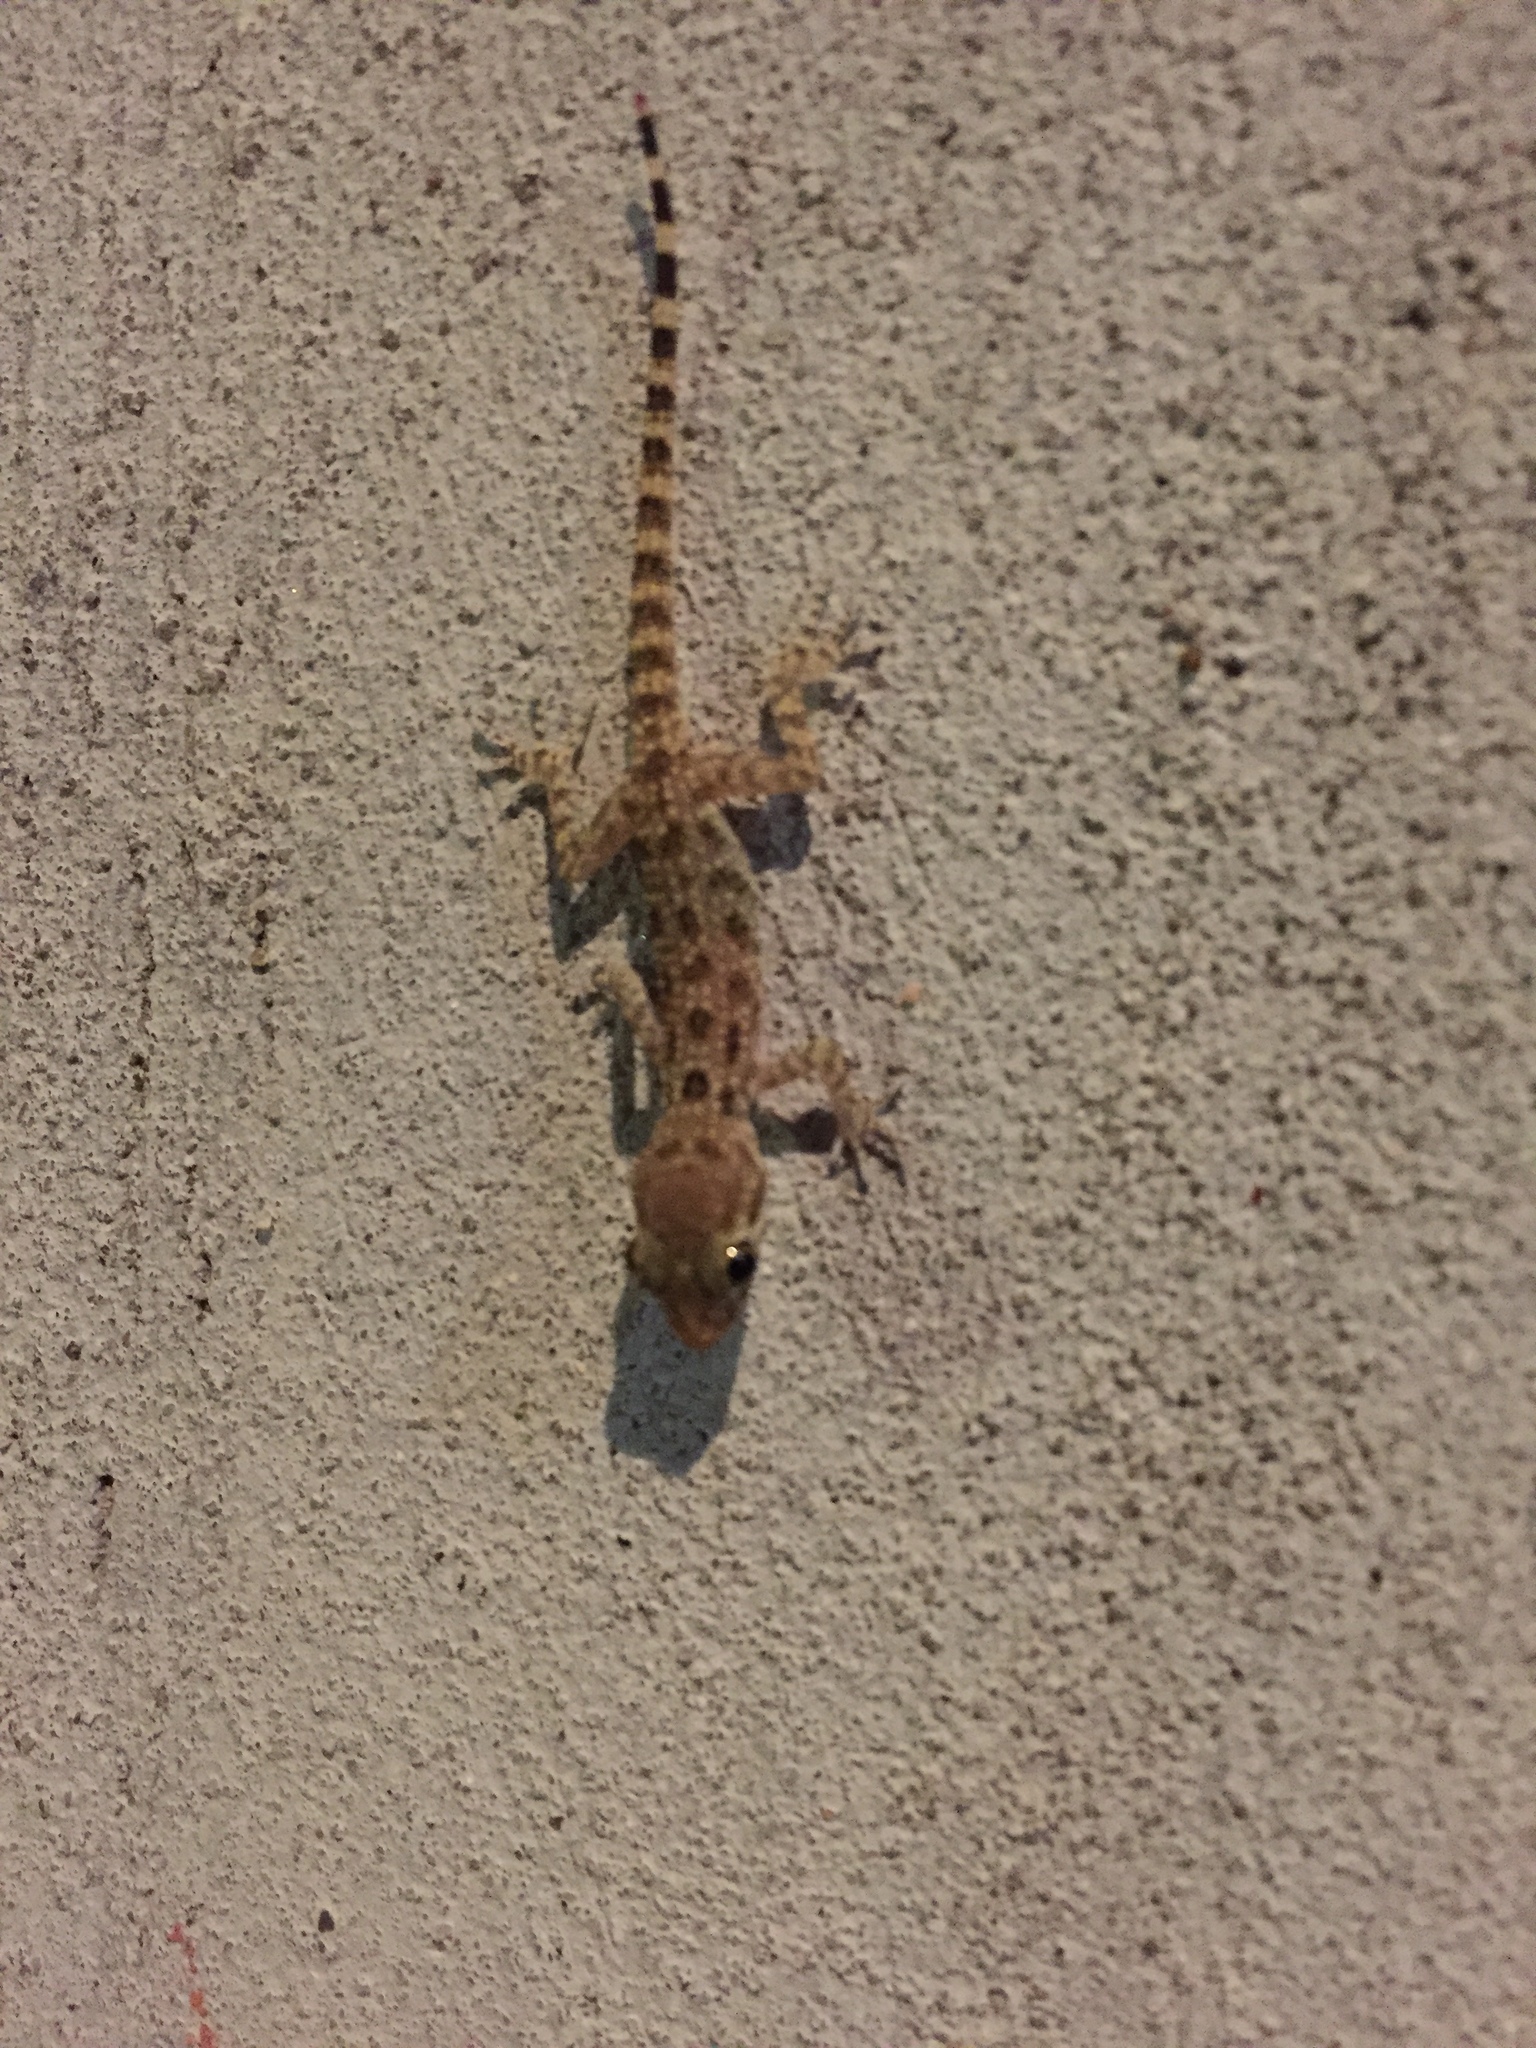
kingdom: Animalia
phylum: Chordata
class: Squamata
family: Gekkonidae
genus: Cyrtopodion
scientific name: Cyrtopodion scabrum
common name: Rough-tailed gecko
